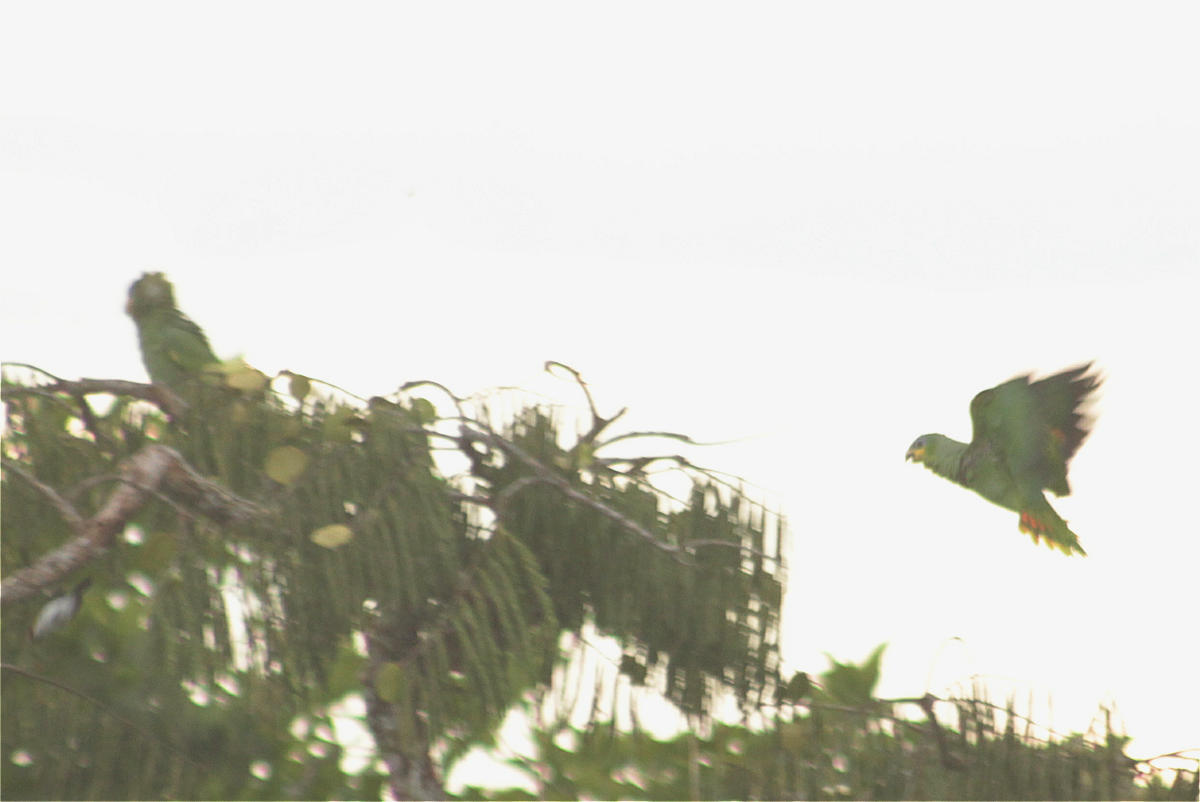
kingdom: Animalia
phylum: Chordata
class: Aves
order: Psittaciformes
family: Psittacidae
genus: Amazona
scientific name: Amazona amazonica
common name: Orange-winged amazon
